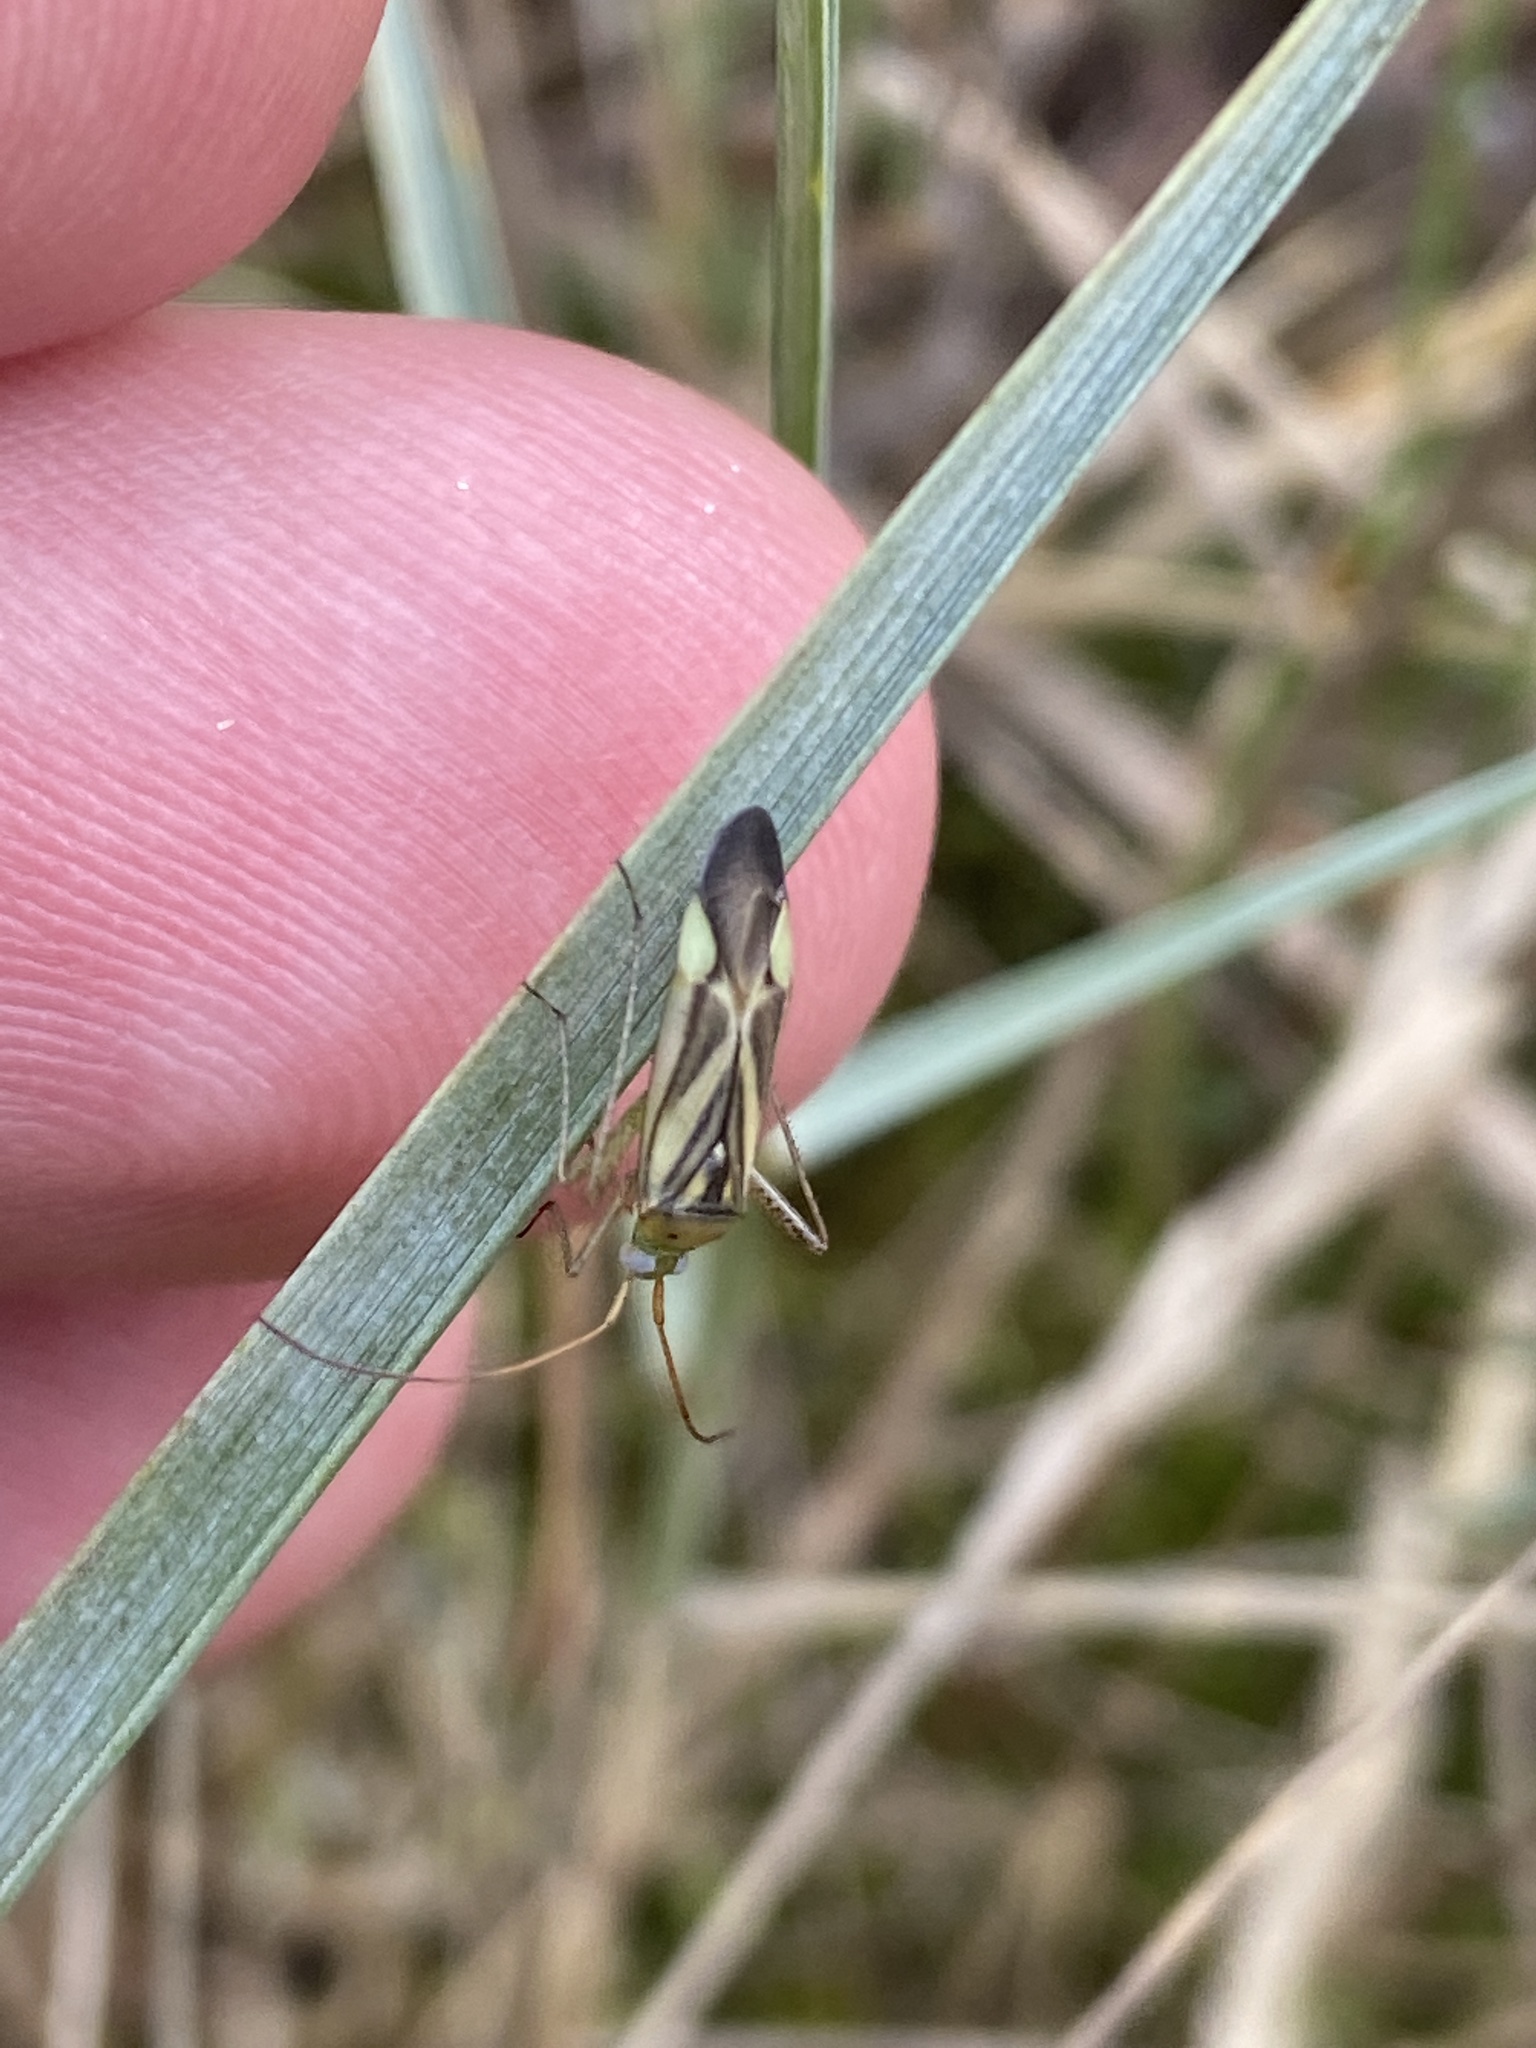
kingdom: Animalia
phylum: Arthropoda
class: Insecta
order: Hemiptera
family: Miridae
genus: Adelphocoris
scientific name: Adelphocoris lineolatus
